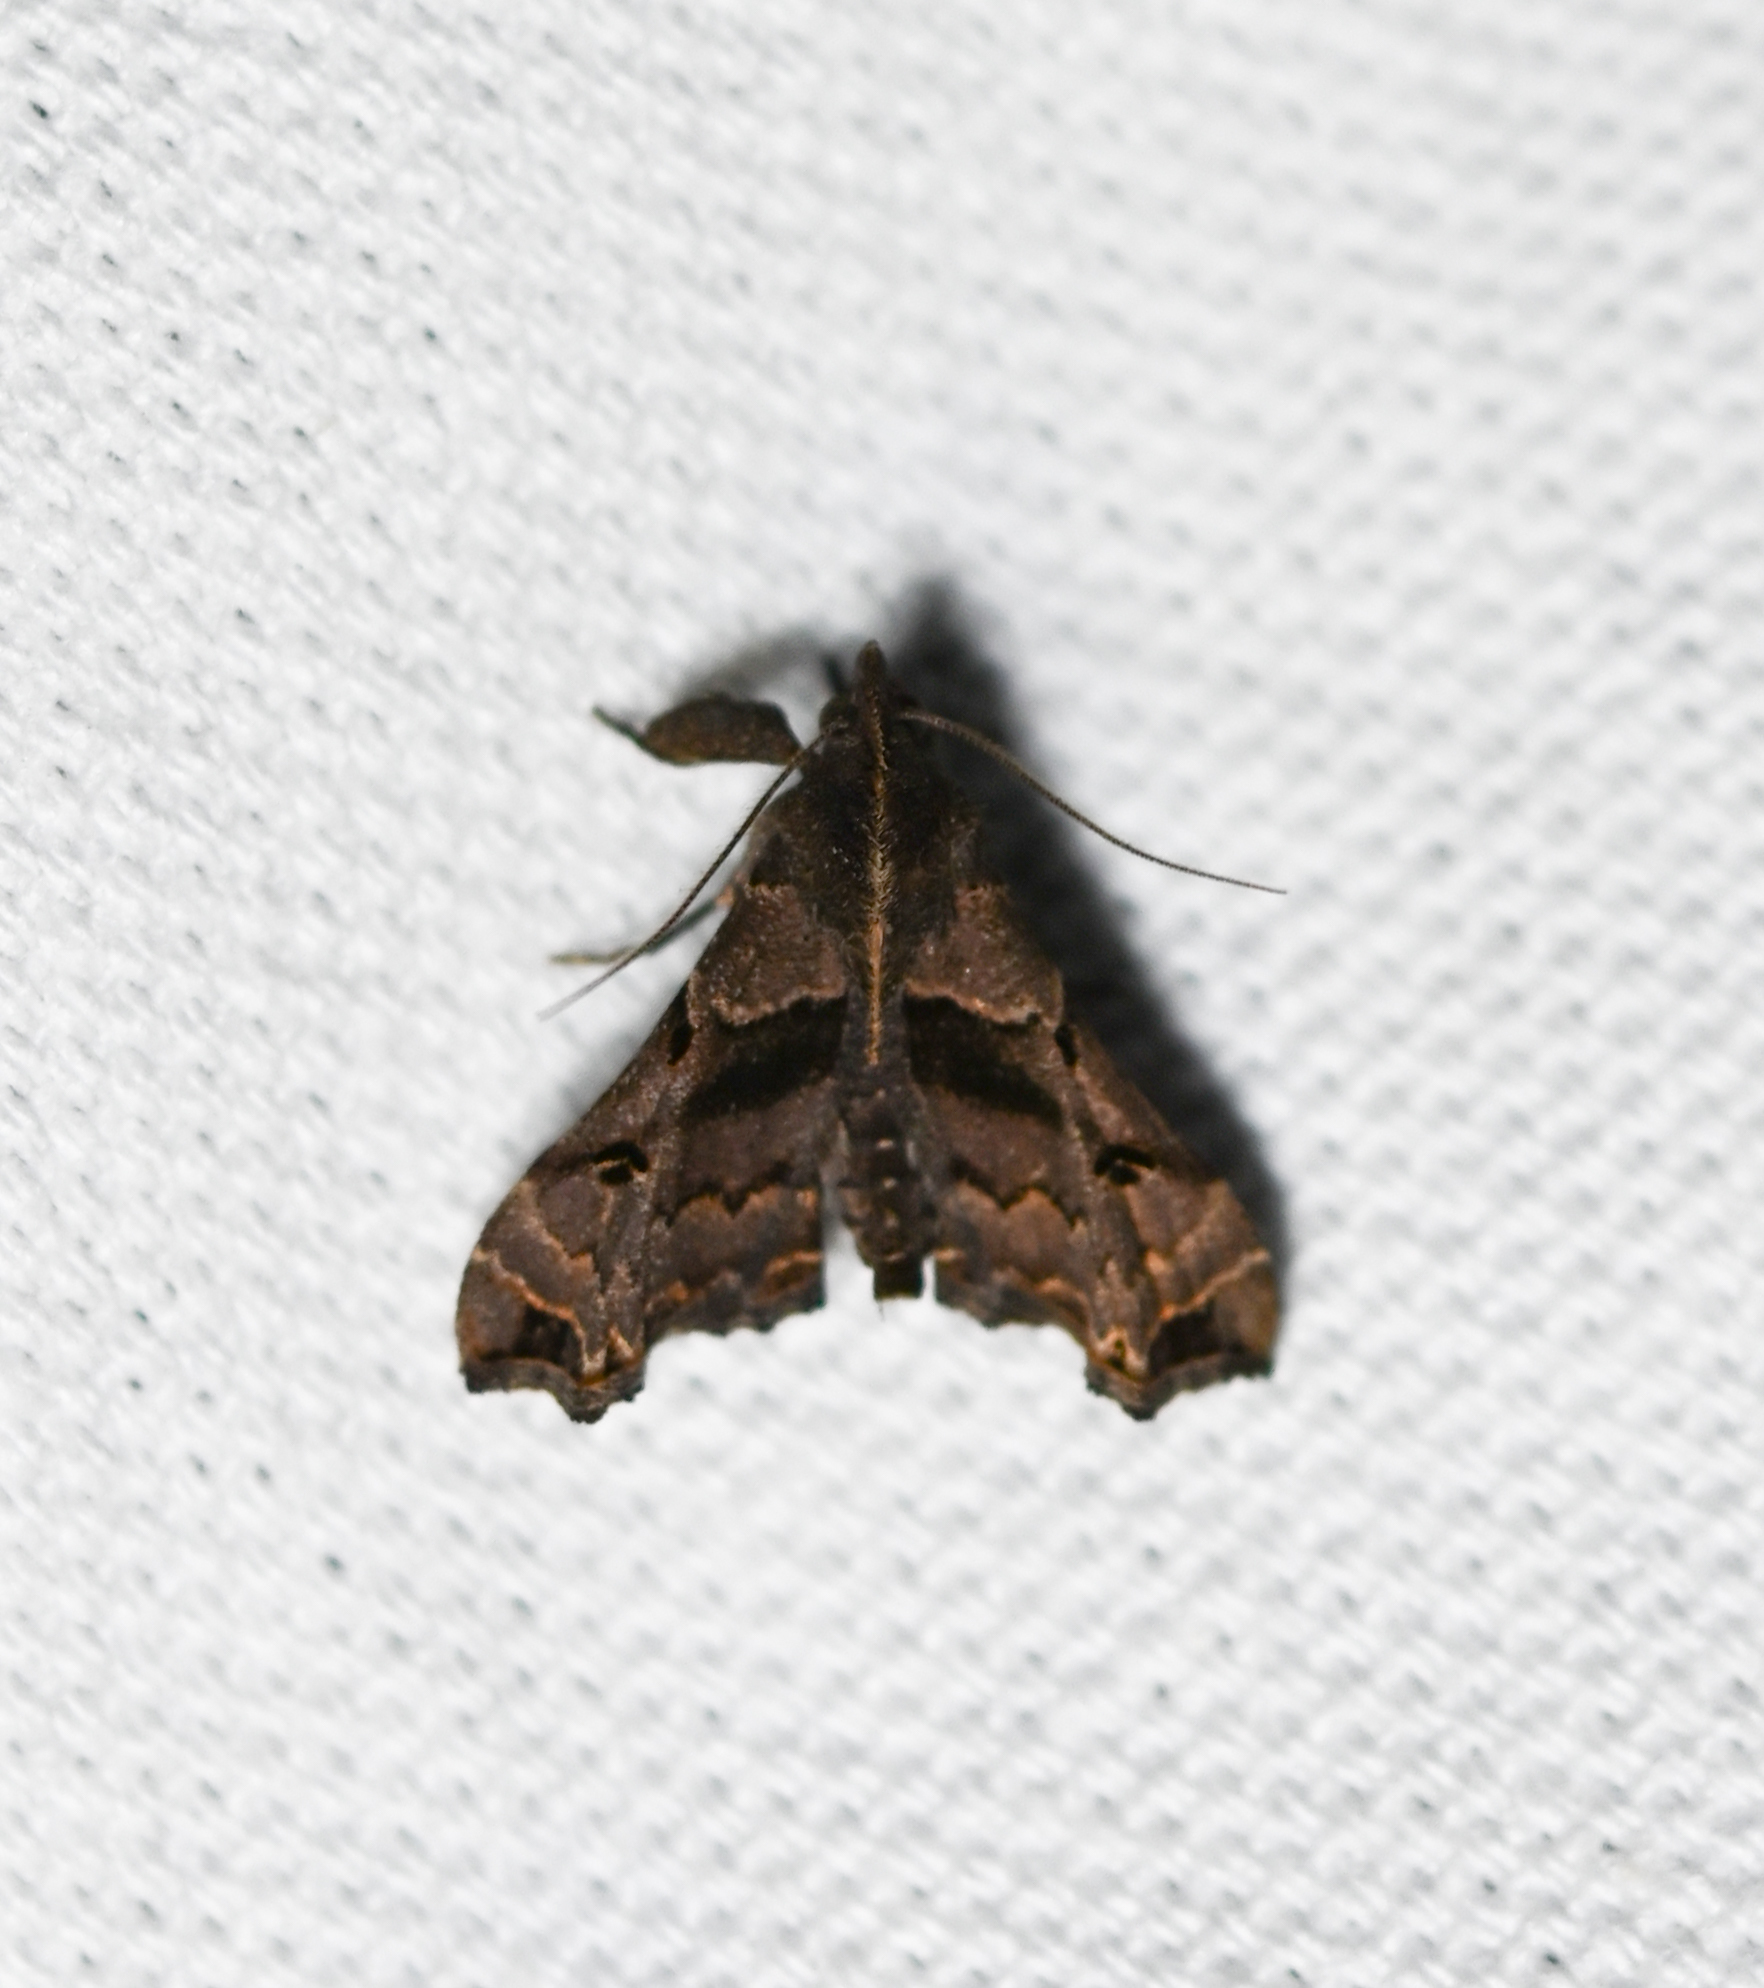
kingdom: Animalia
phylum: Arthropoda
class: Insecta
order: Lepidoptera
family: Erebidae
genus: Palthis
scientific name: Palthis asopialis
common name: Faint-spotted palthis moth
